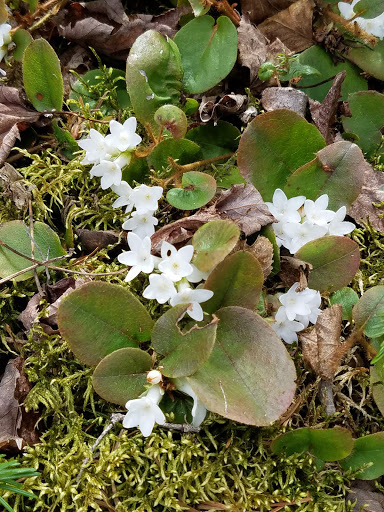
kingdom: Plantae
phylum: Tracheophyta
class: Magnoliopsida
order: Ericales
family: Ericaceae
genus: Epigaea
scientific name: Epigaea repens
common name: Gravelroot
